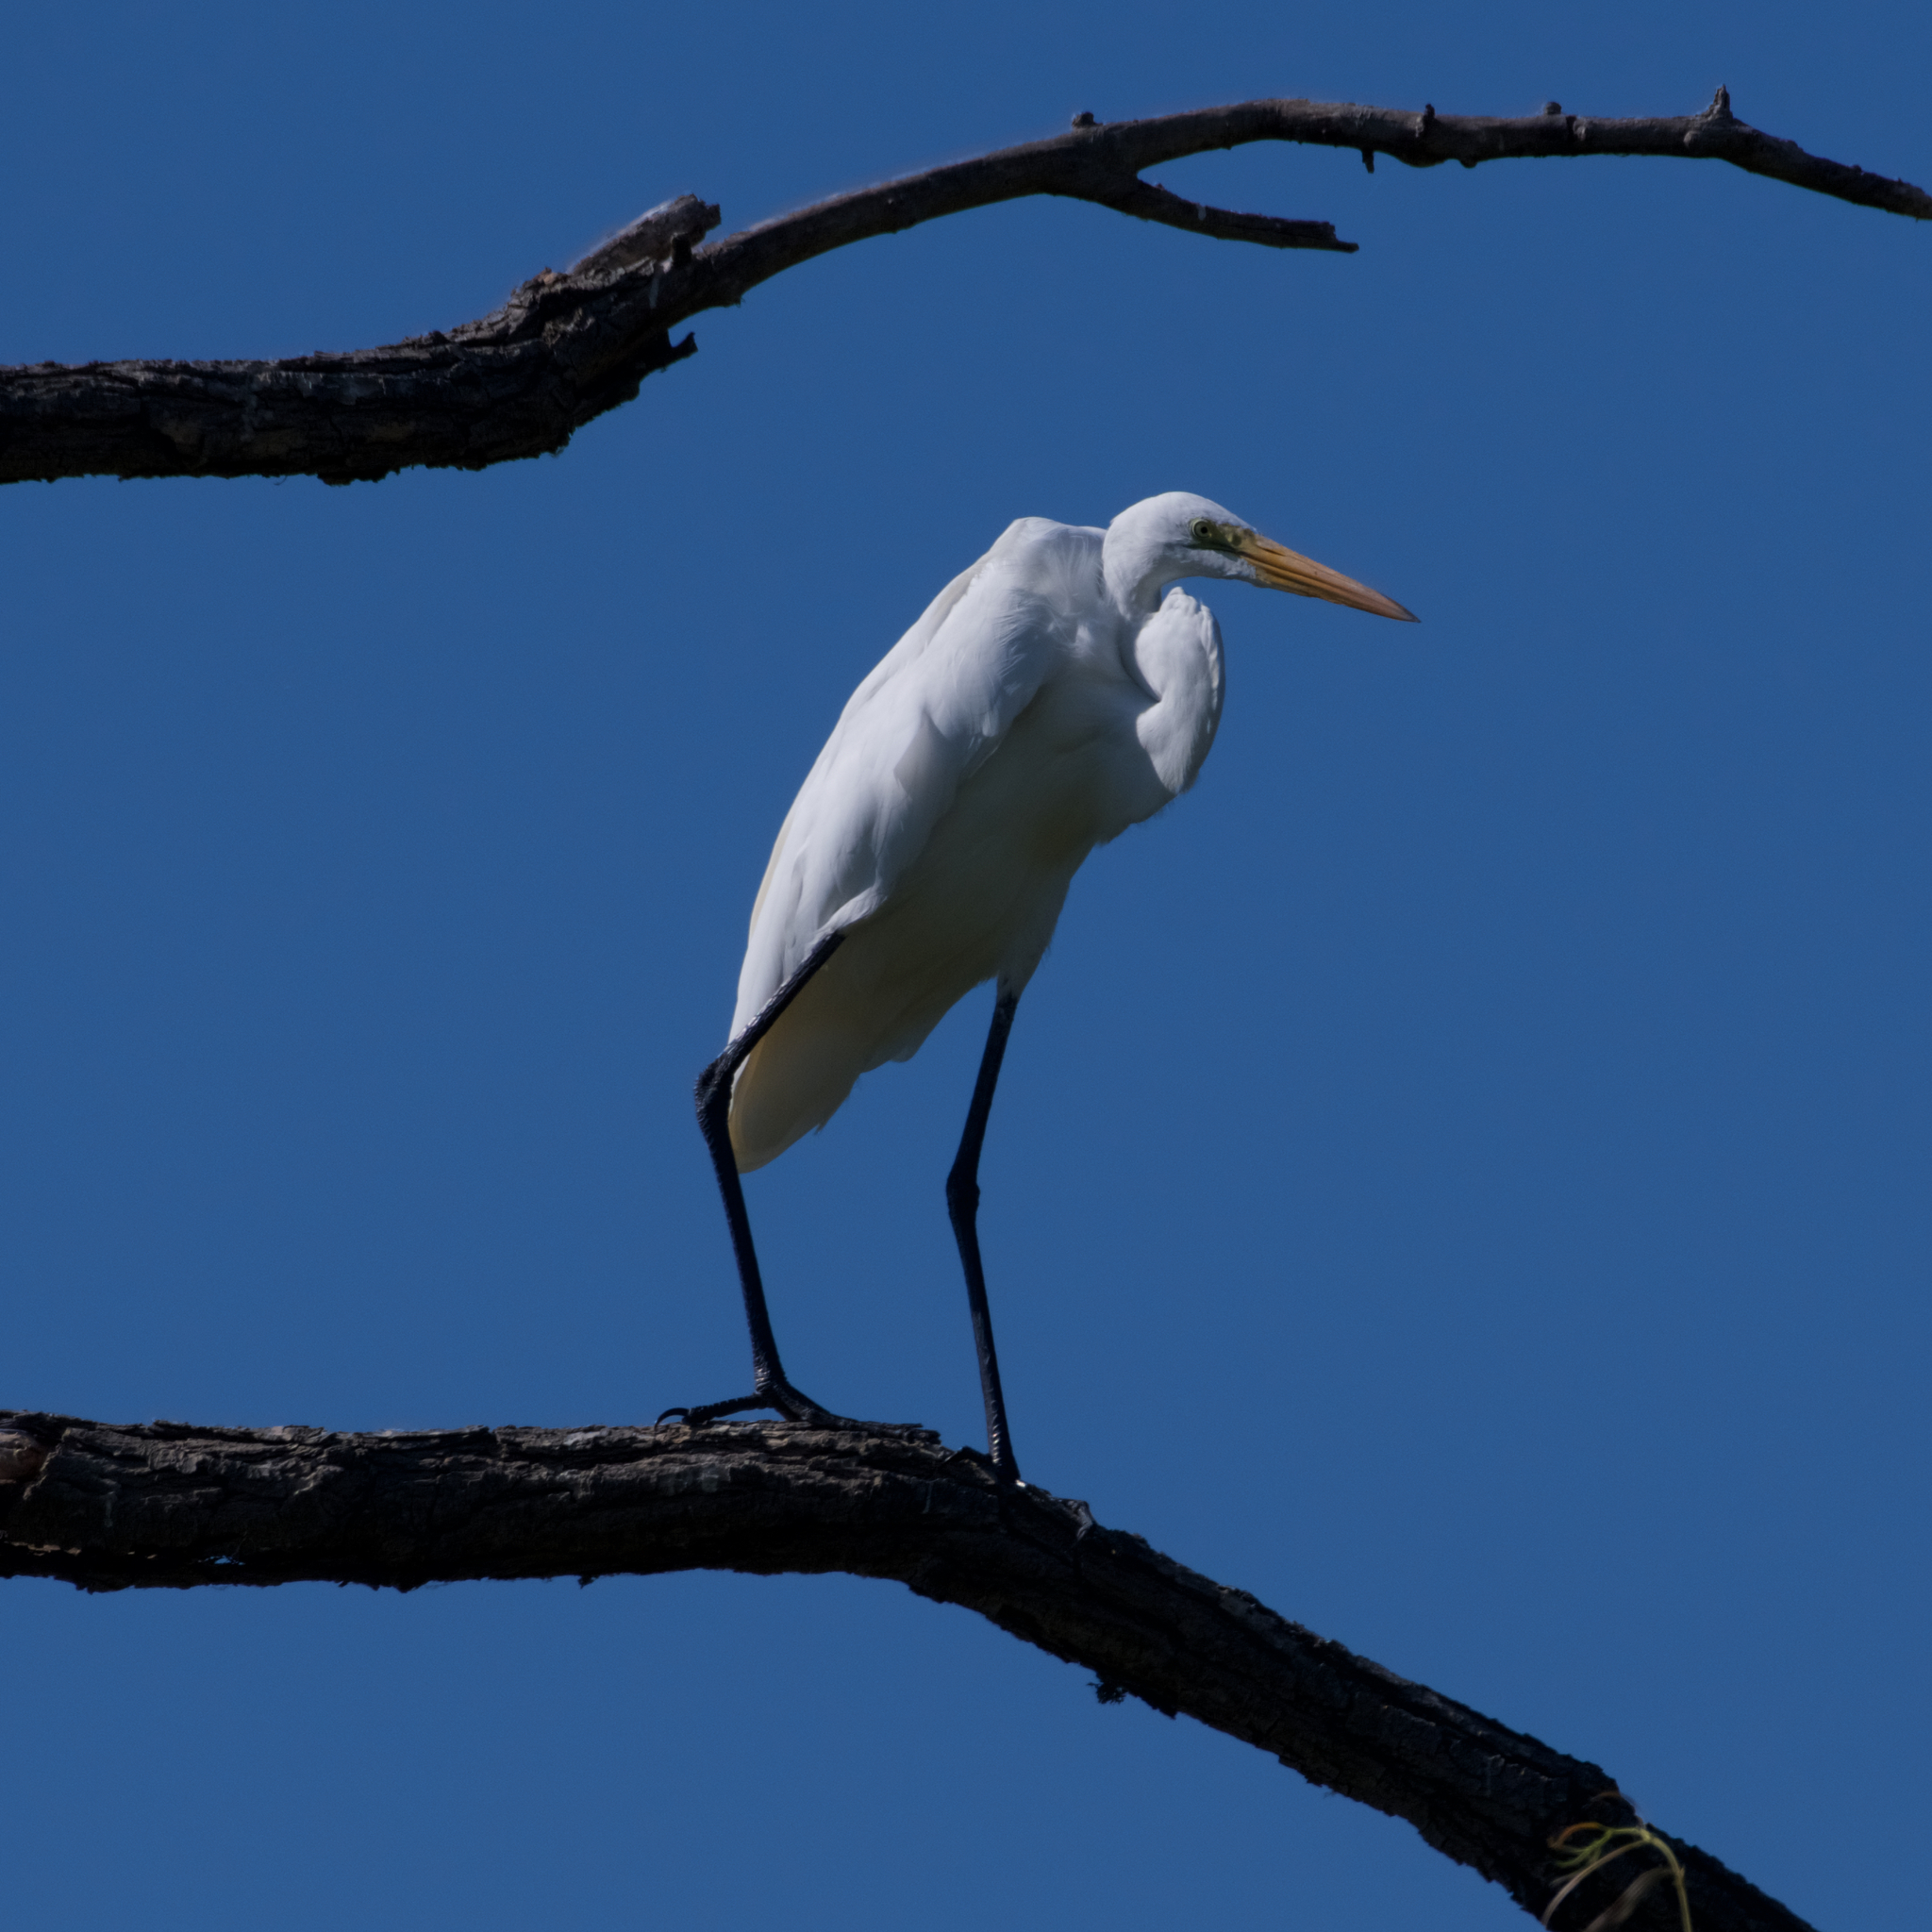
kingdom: Animalia
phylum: Chordata
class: Aves
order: Pelecaniformes
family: Ardeidae
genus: Ardea
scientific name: Ardea alba
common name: Great egret
